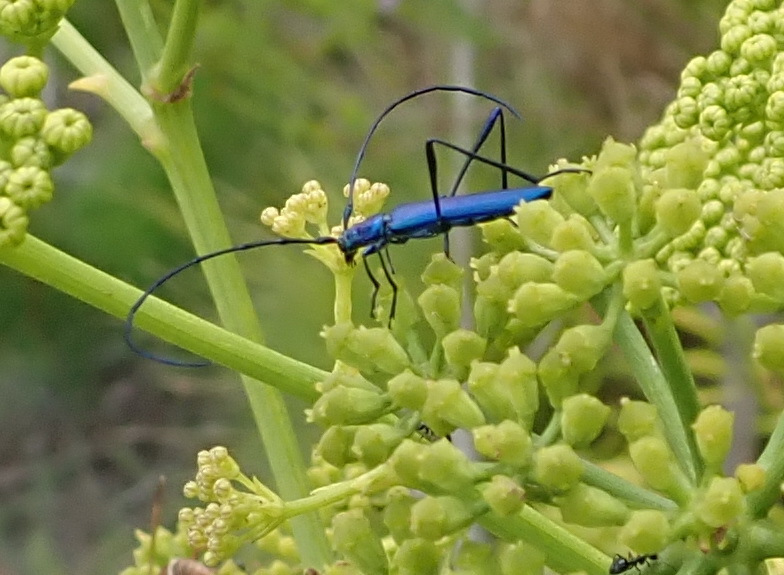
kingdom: Animalia
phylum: Arthropoda
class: Insecta
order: Coleoptera
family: Cerambycidae
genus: Promeces
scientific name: Promeces longipes
